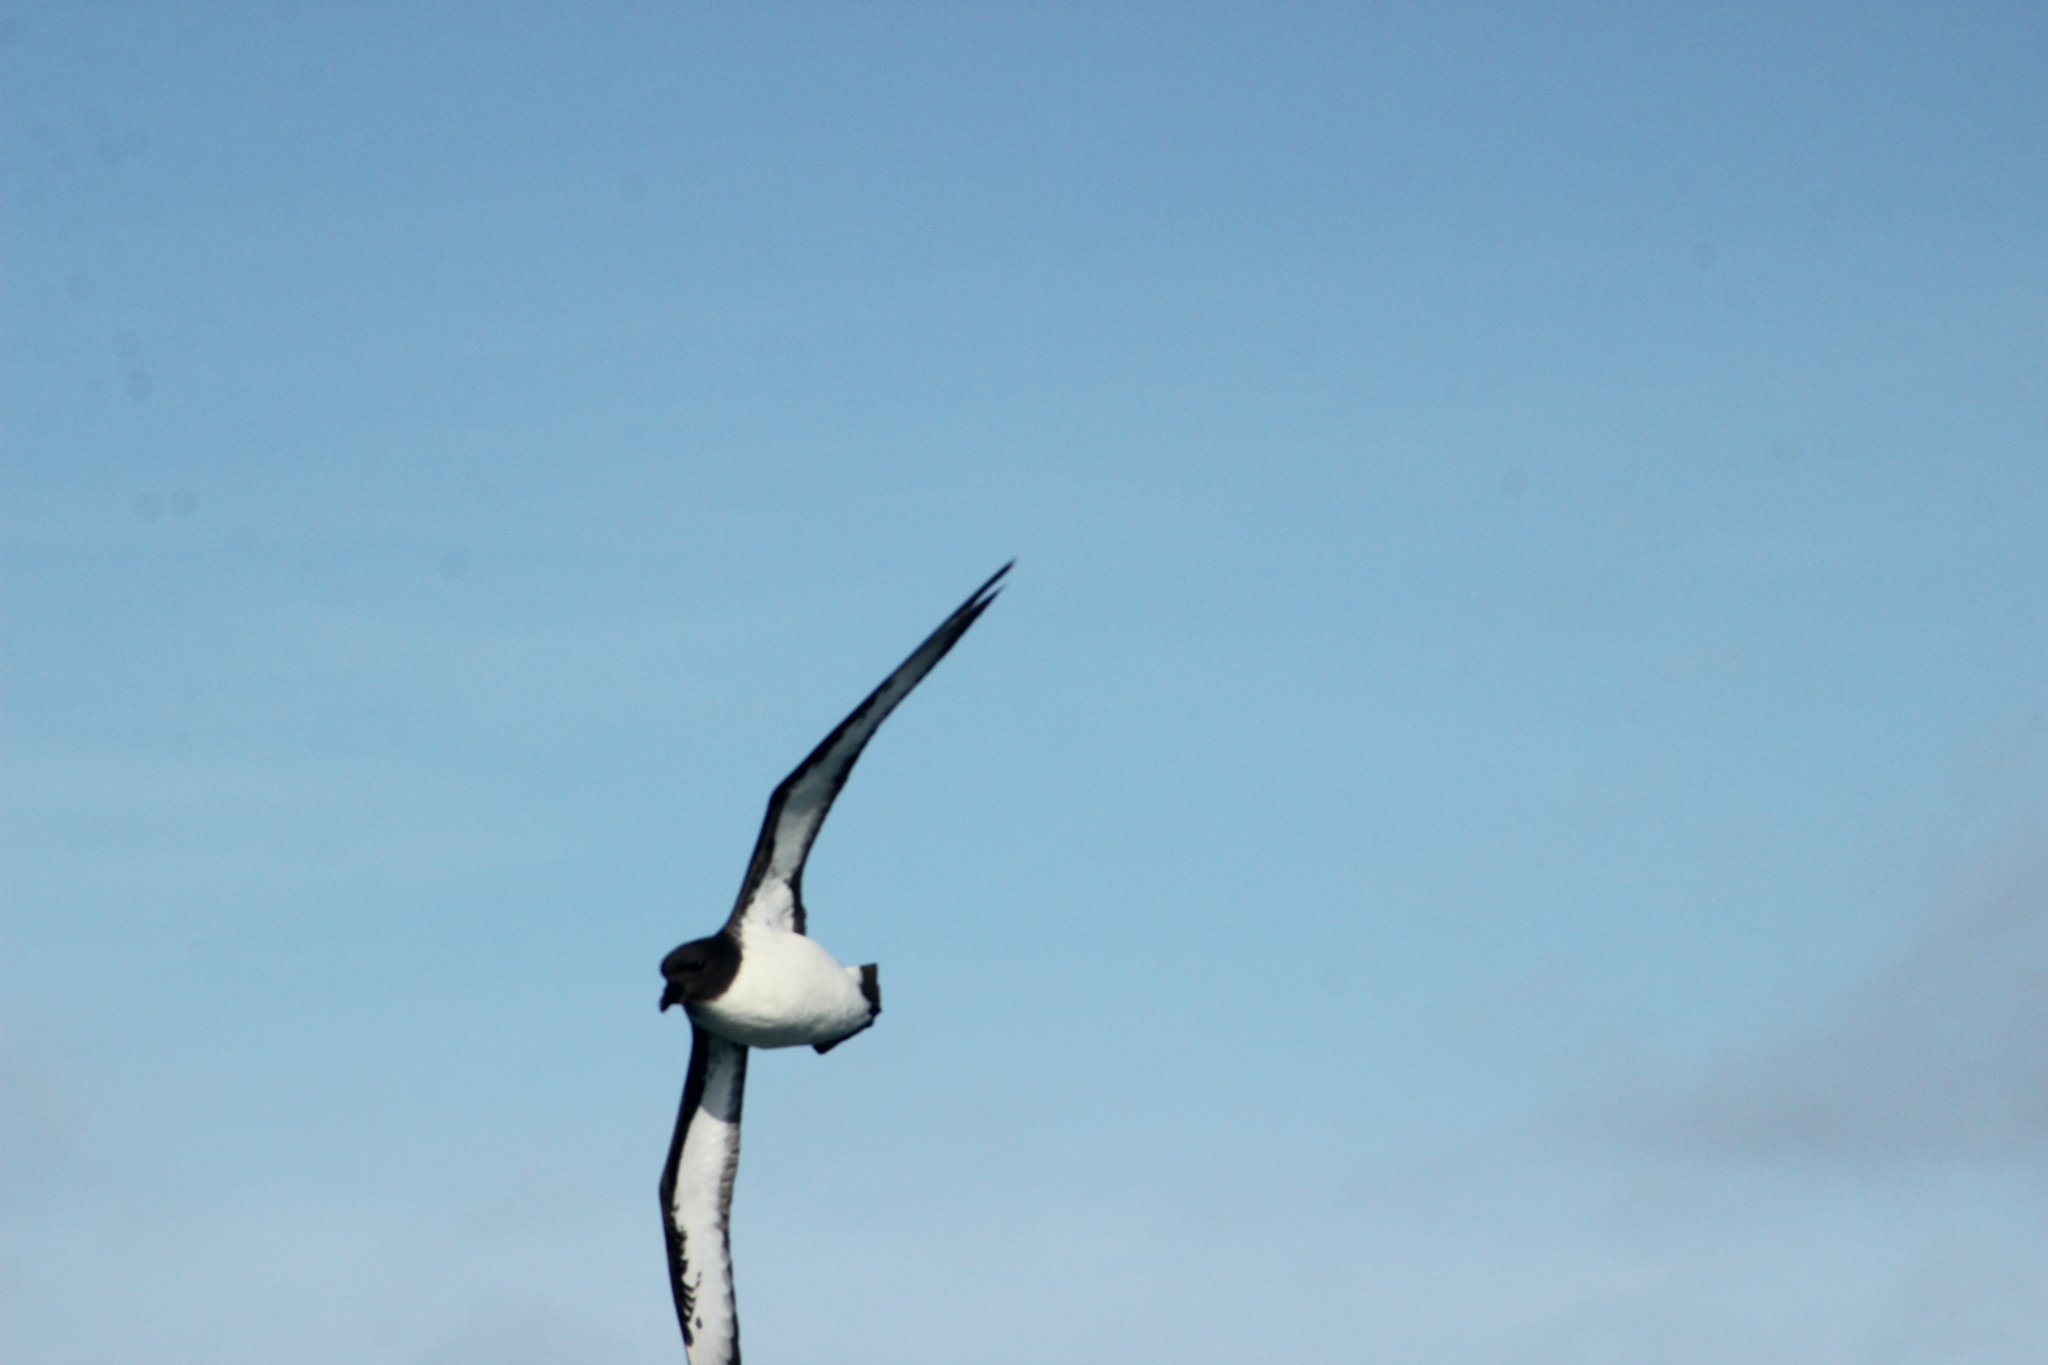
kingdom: Animalia
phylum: Chordata
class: Aves
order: Procellariiformes
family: Procellariidae
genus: Daption
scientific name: Daption capense
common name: Cape petrel
